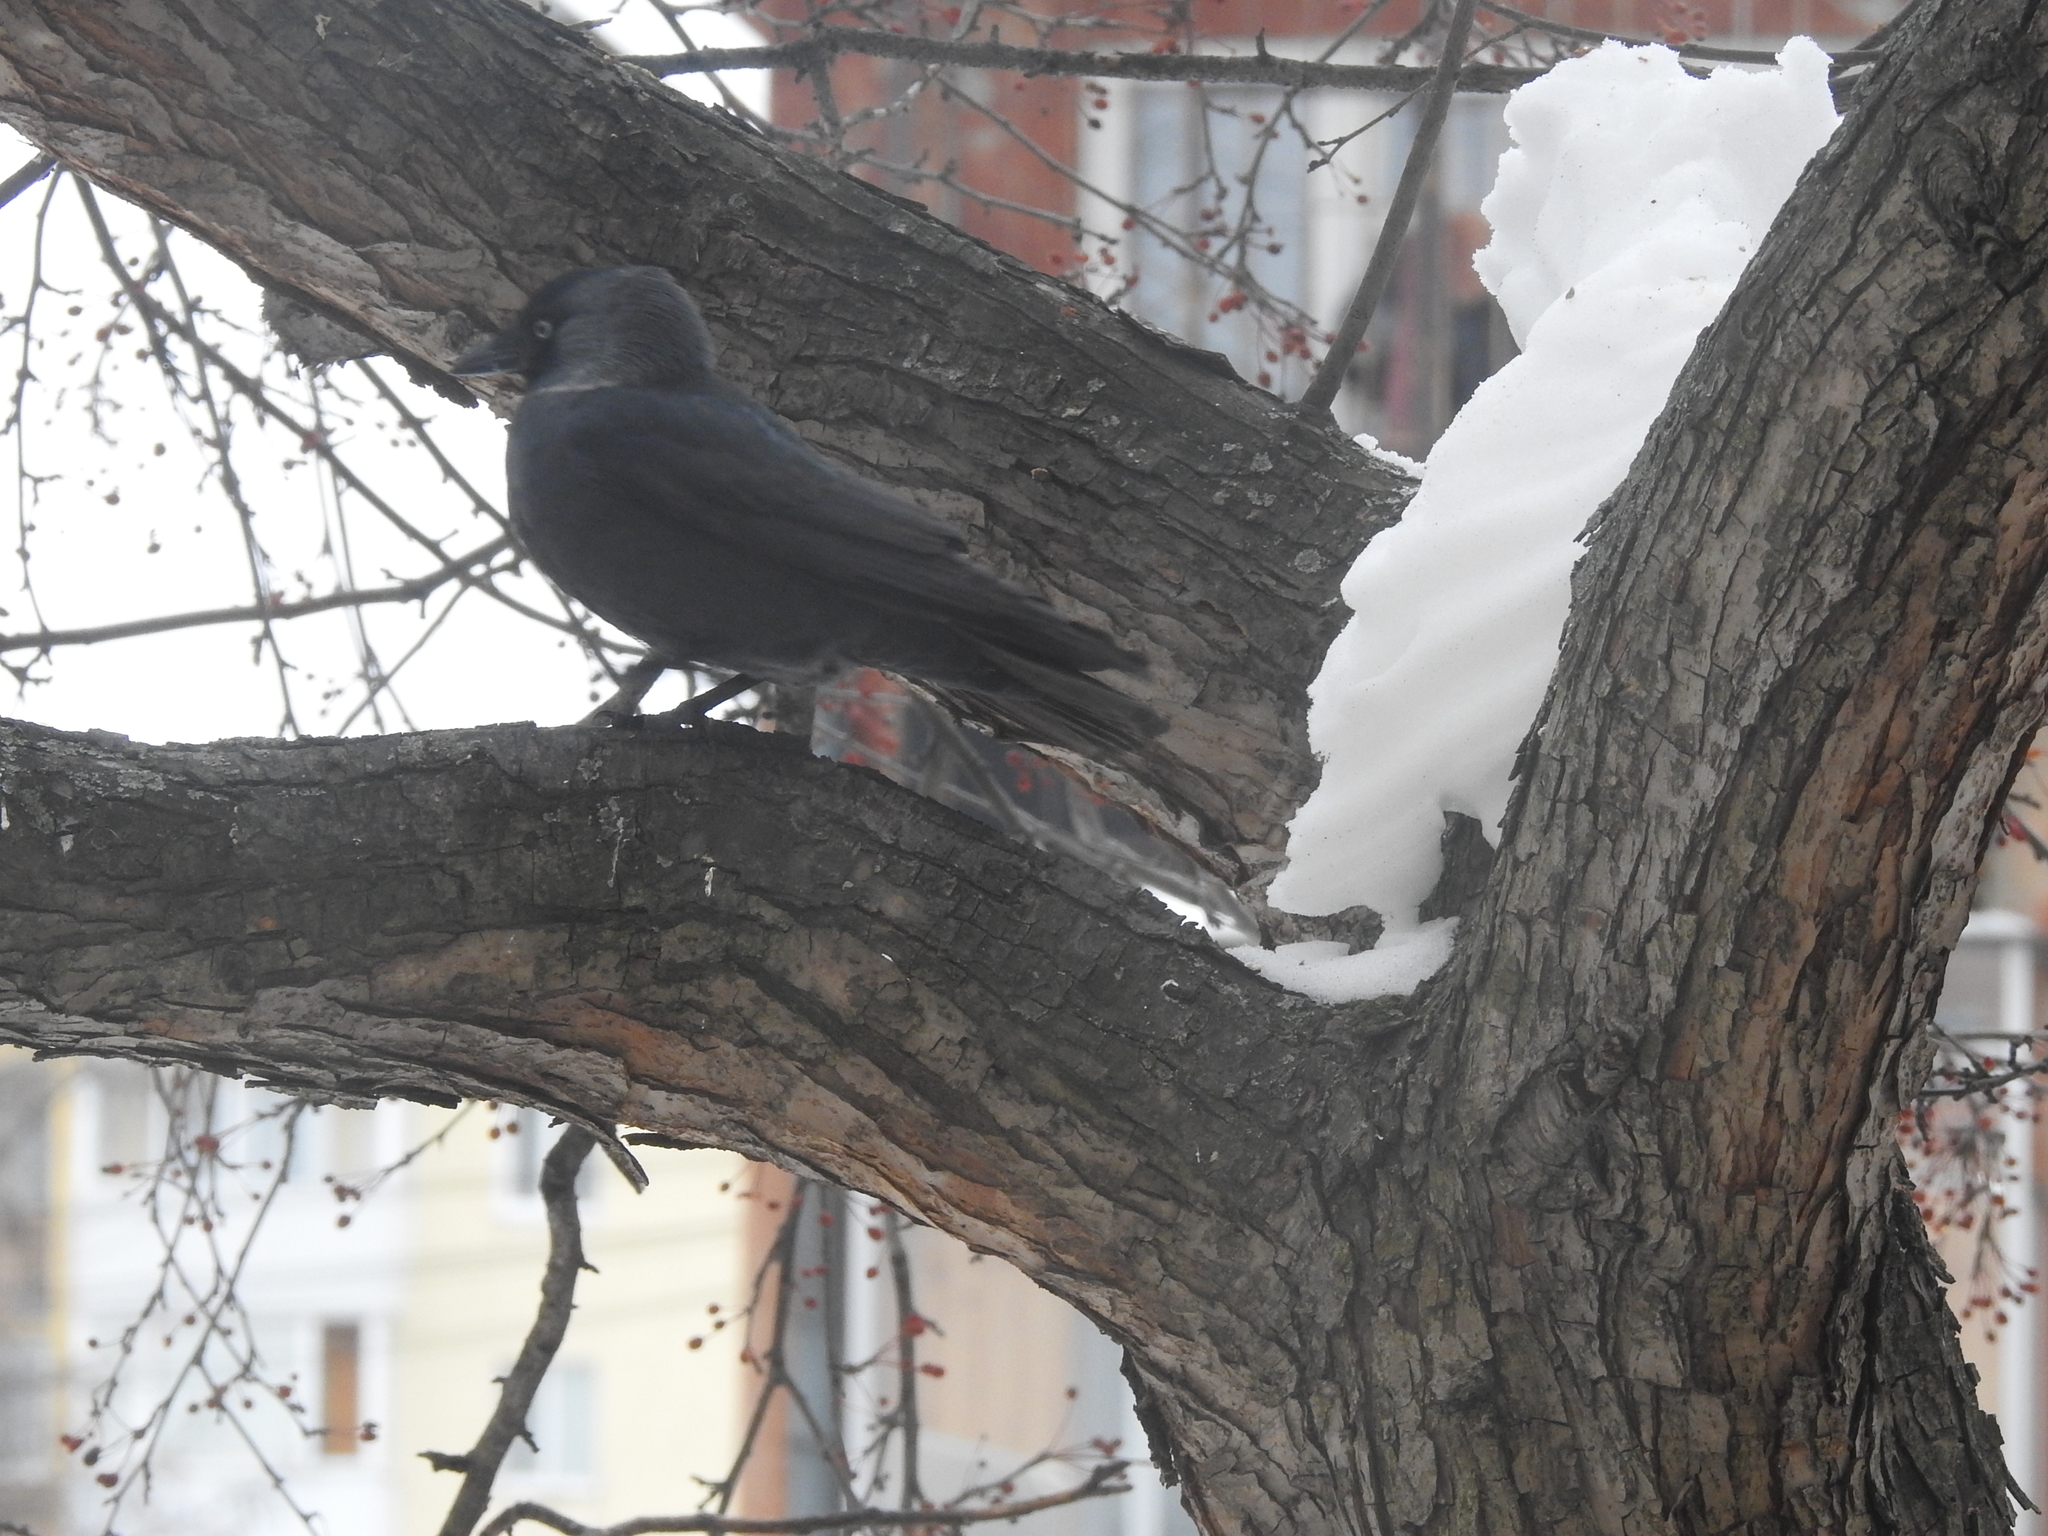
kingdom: Animalia
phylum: Chordata
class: Aves
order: Passeriformes
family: Corvidae
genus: Coloeus
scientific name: Coloeus monedula
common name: Western jackdaw
